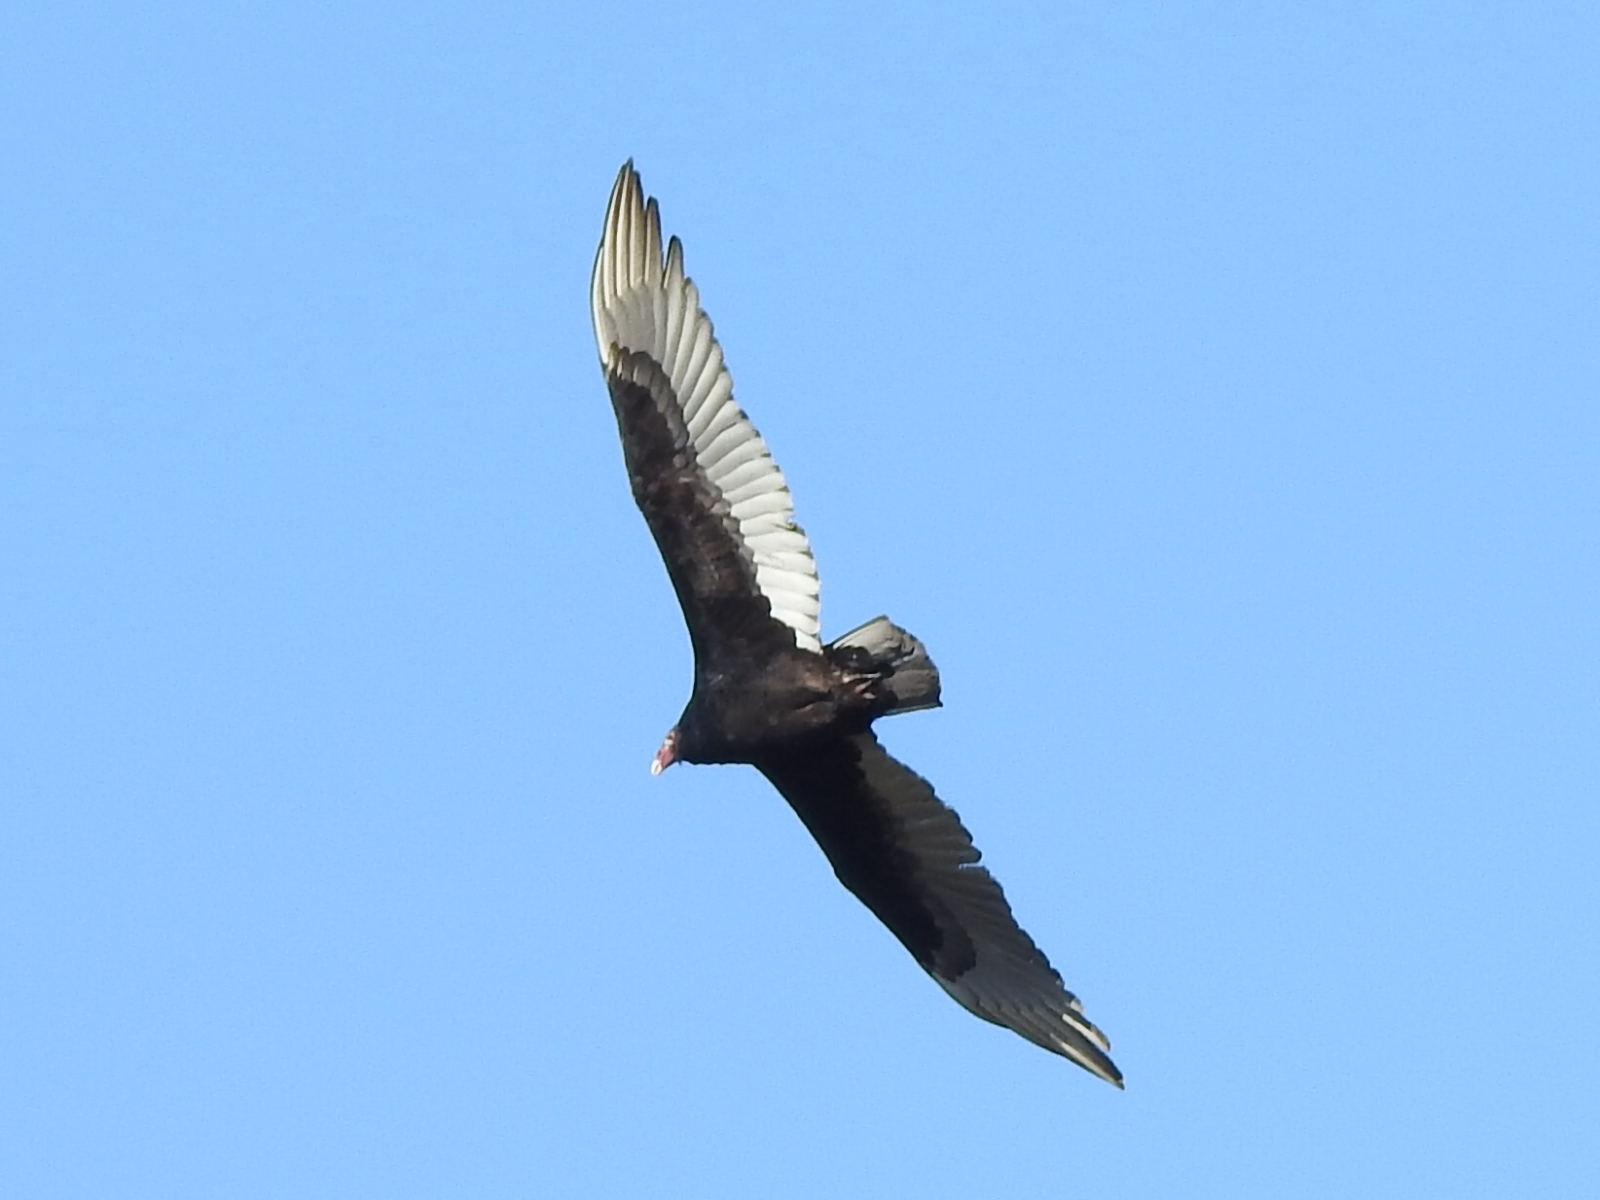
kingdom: Animalia
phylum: Chordata
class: Aves
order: Accipitriformes
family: Cathartidae
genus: Cathartes
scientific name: Cathartes aura
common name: Turkey vulture
